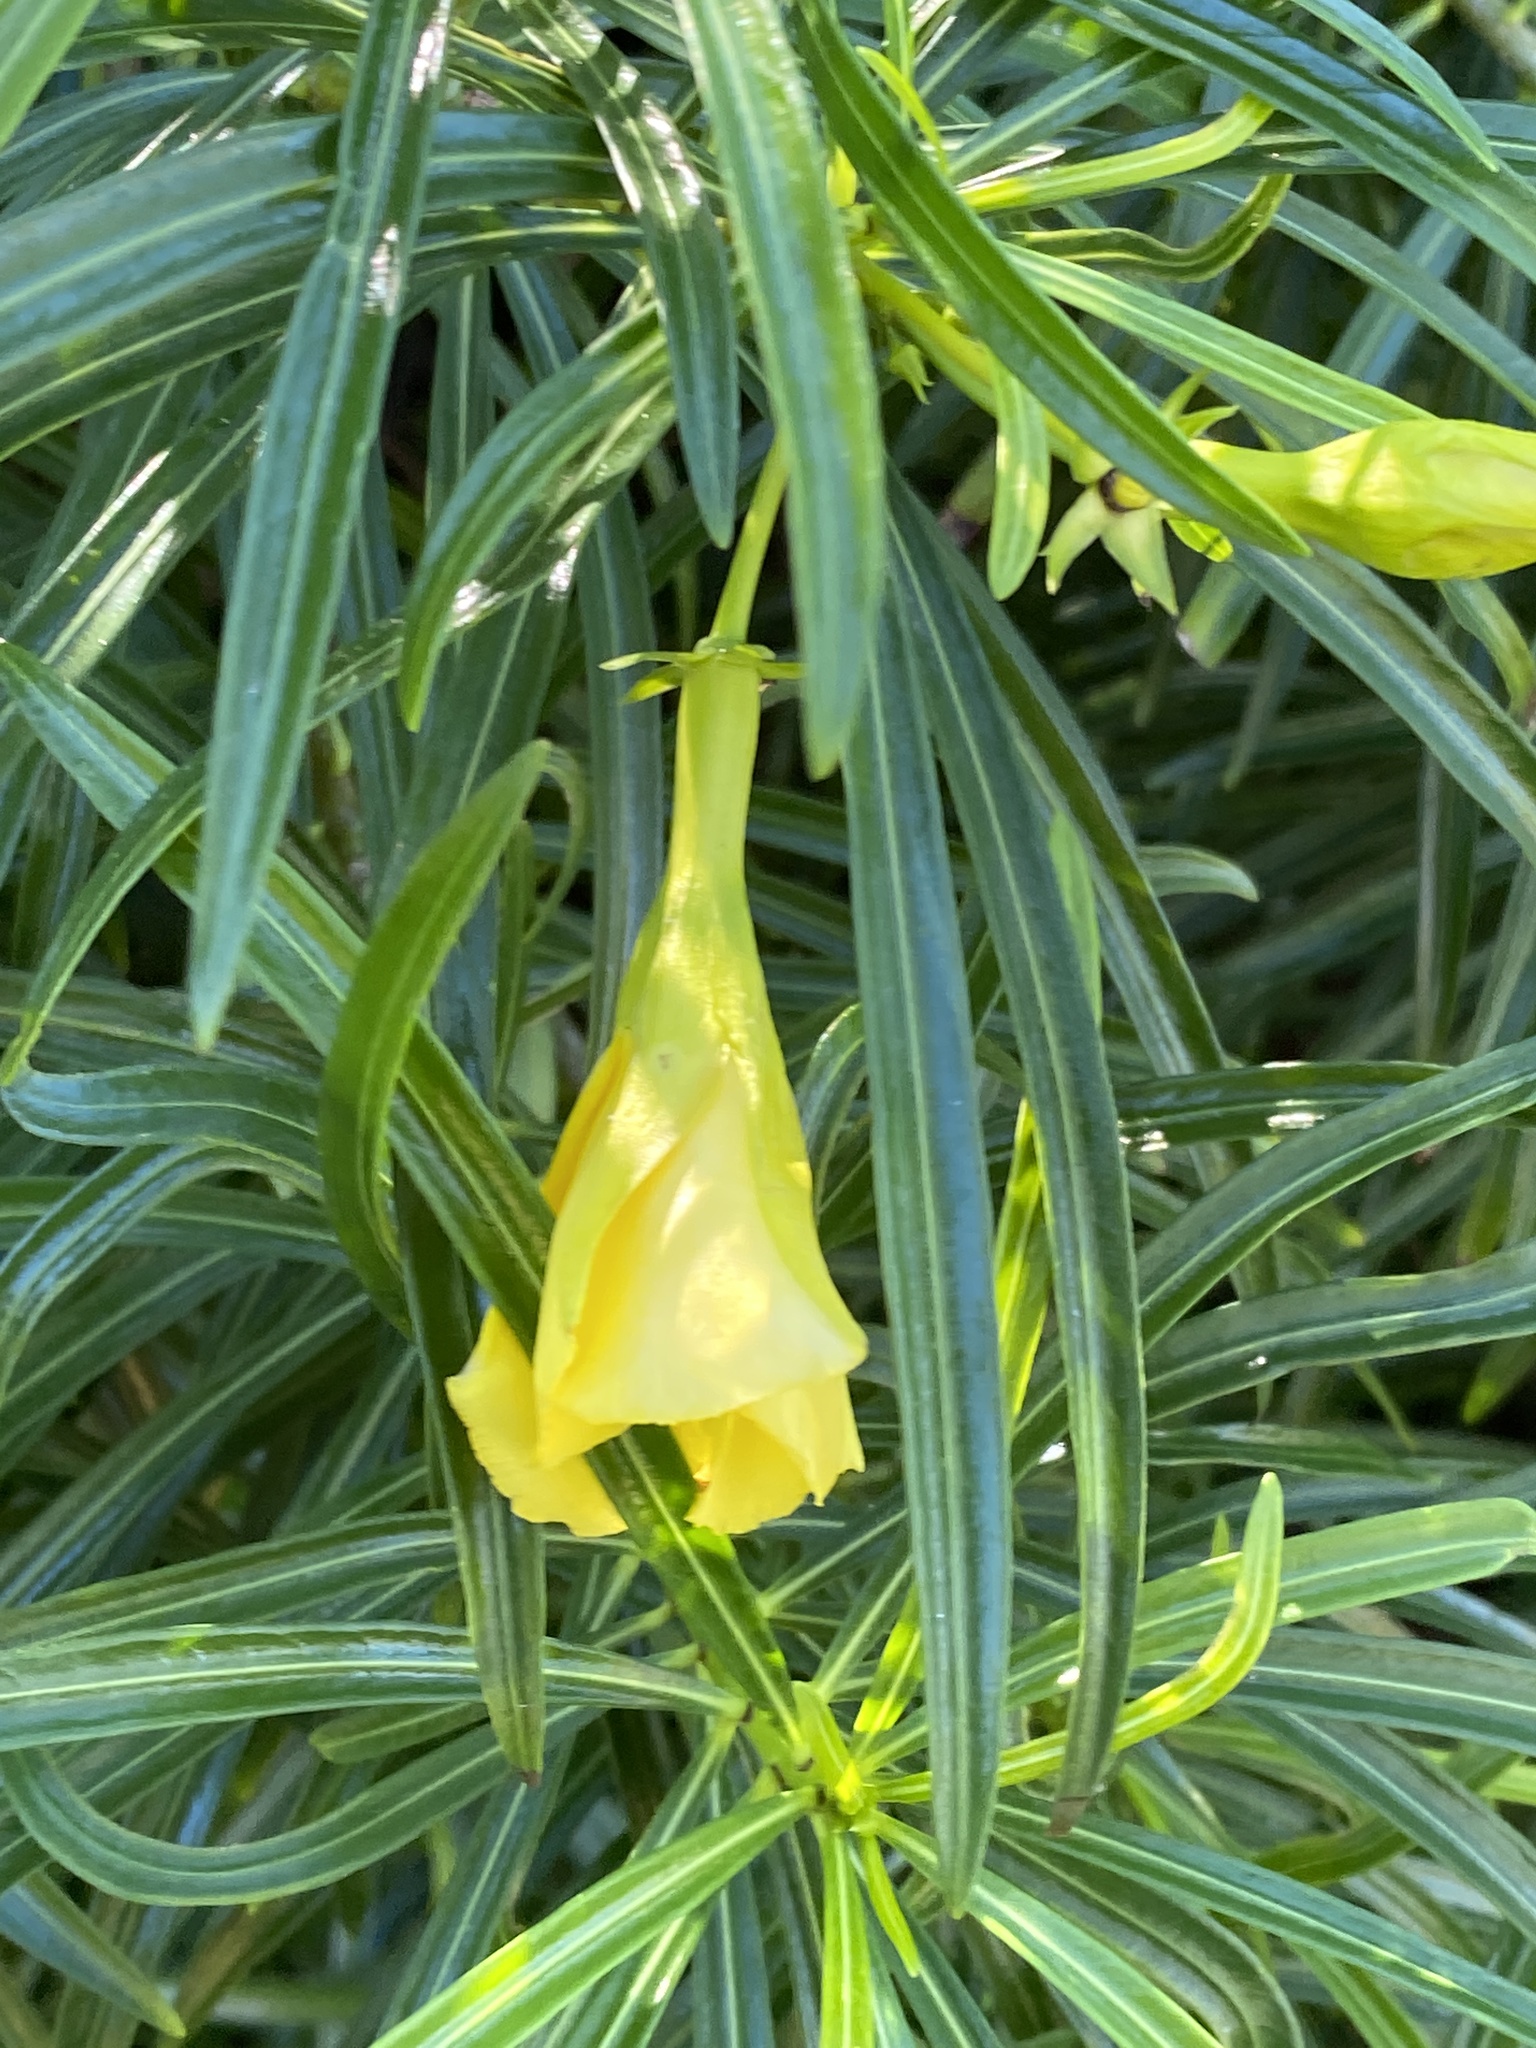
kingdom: Plantae
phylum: Tracheophyta
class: Magnoliopsida
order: Gentianales
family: Apocynaceae
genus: Cascabela
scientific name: Cascabela thevetia
